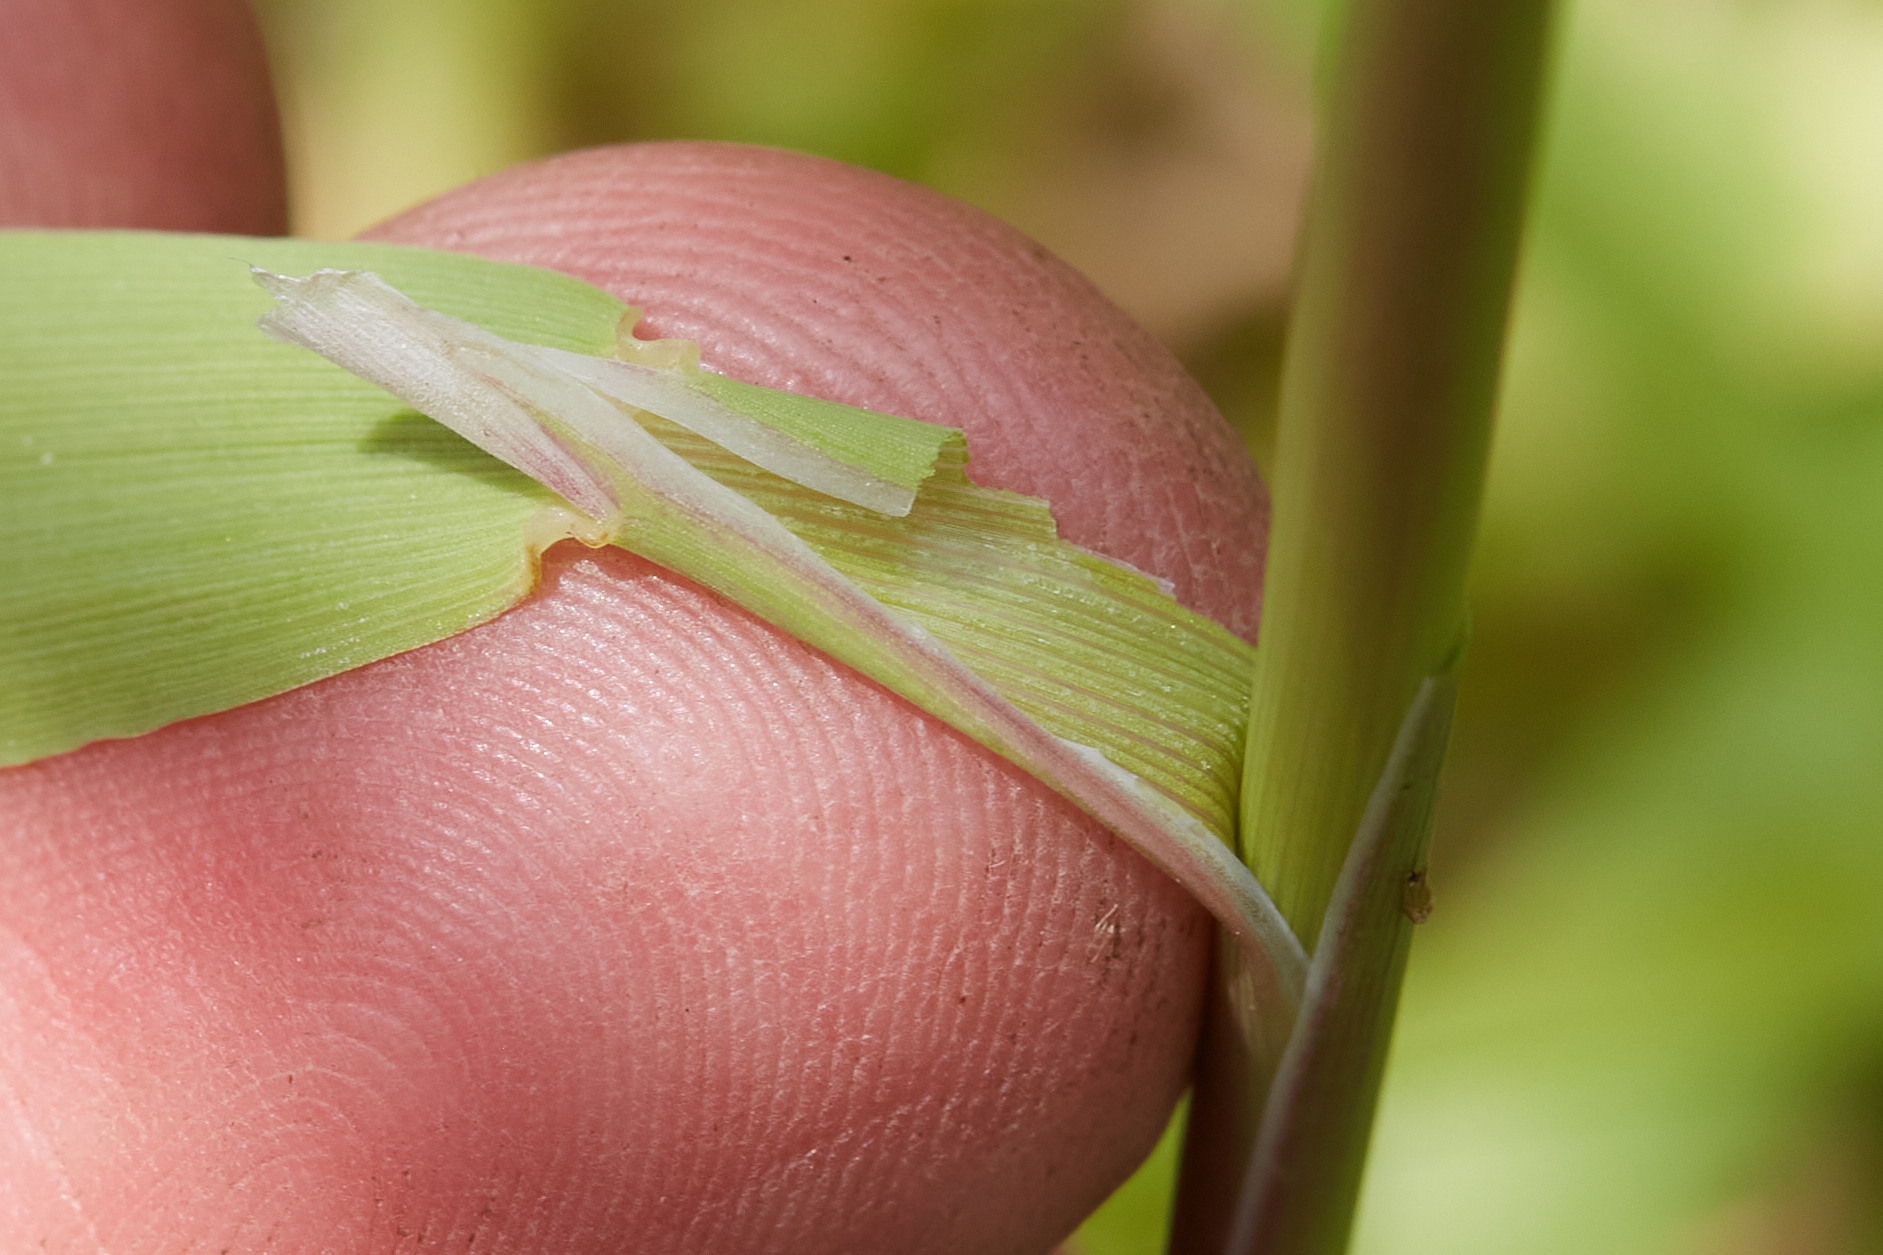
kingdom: Plantae
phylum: Tracheophyta
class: Liliopsida
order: Poales
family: Poaceae
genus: Polypogon
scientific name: Polypogon monspeliensis
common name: Annual rabbitsfoot grass
